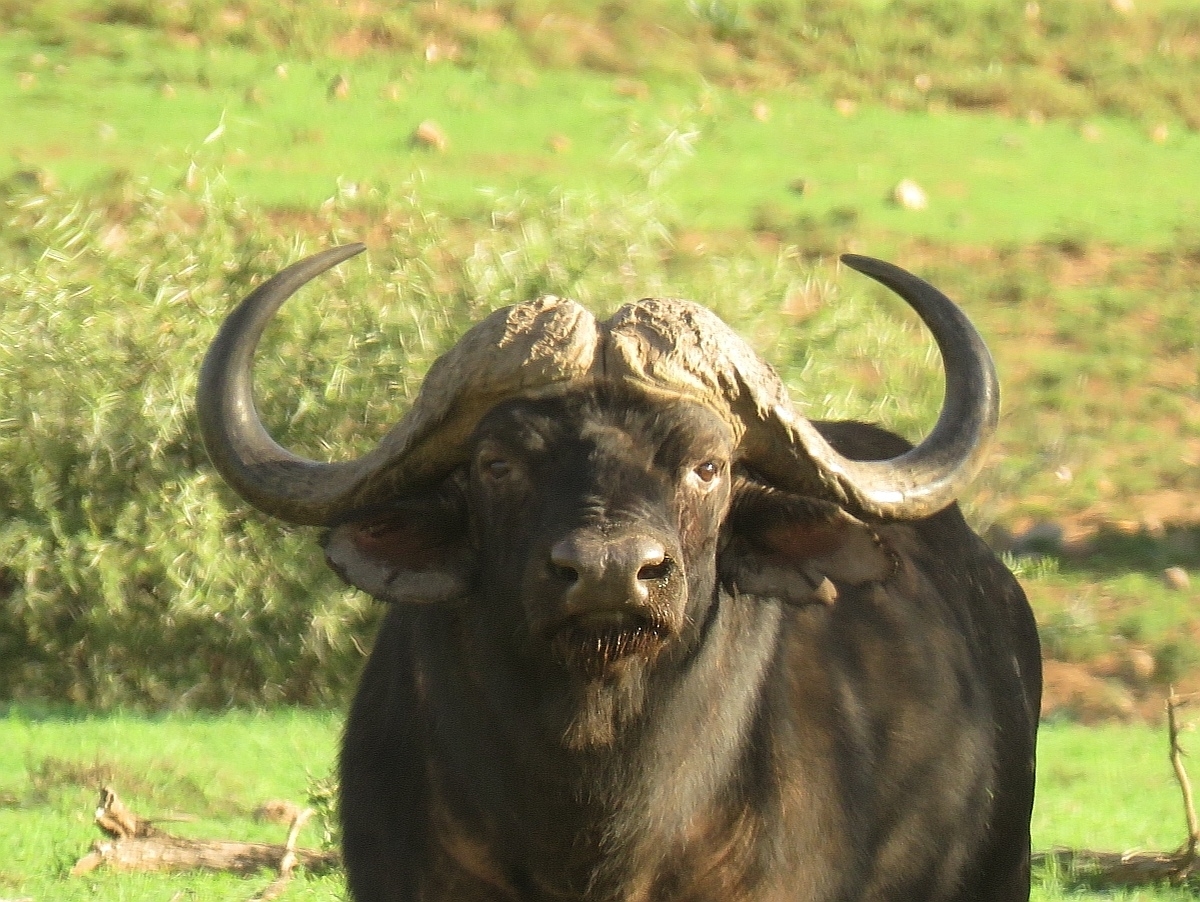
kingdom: Animalia
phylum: Chordata
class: Mammalia
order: Artiodactyla
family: Bovidae
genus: Syncerus
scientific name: Syncerus caffer
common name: African buffalo
